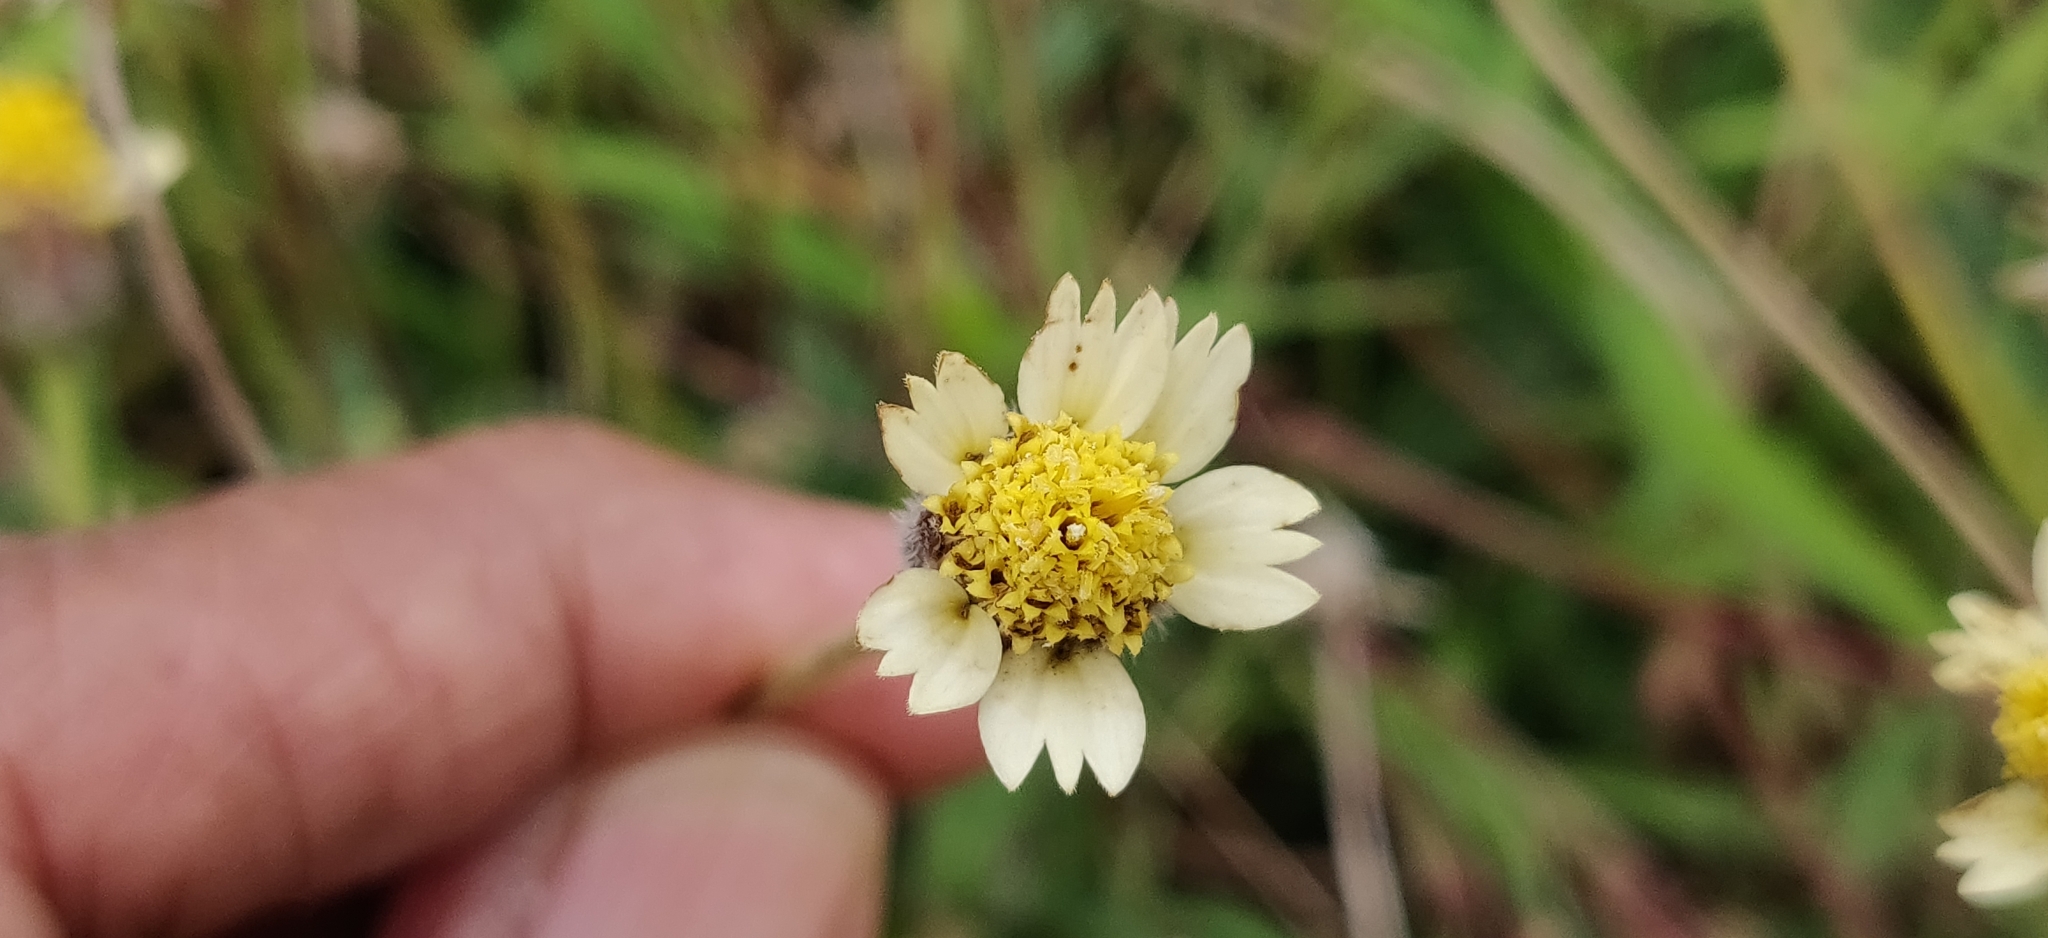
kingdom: Plantae
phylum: Tracheophyta
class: Magnoliopsida
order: Asterales
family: Asteraceae
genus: Tridax
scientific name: Tridax procumbens
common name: Coatbuttons
